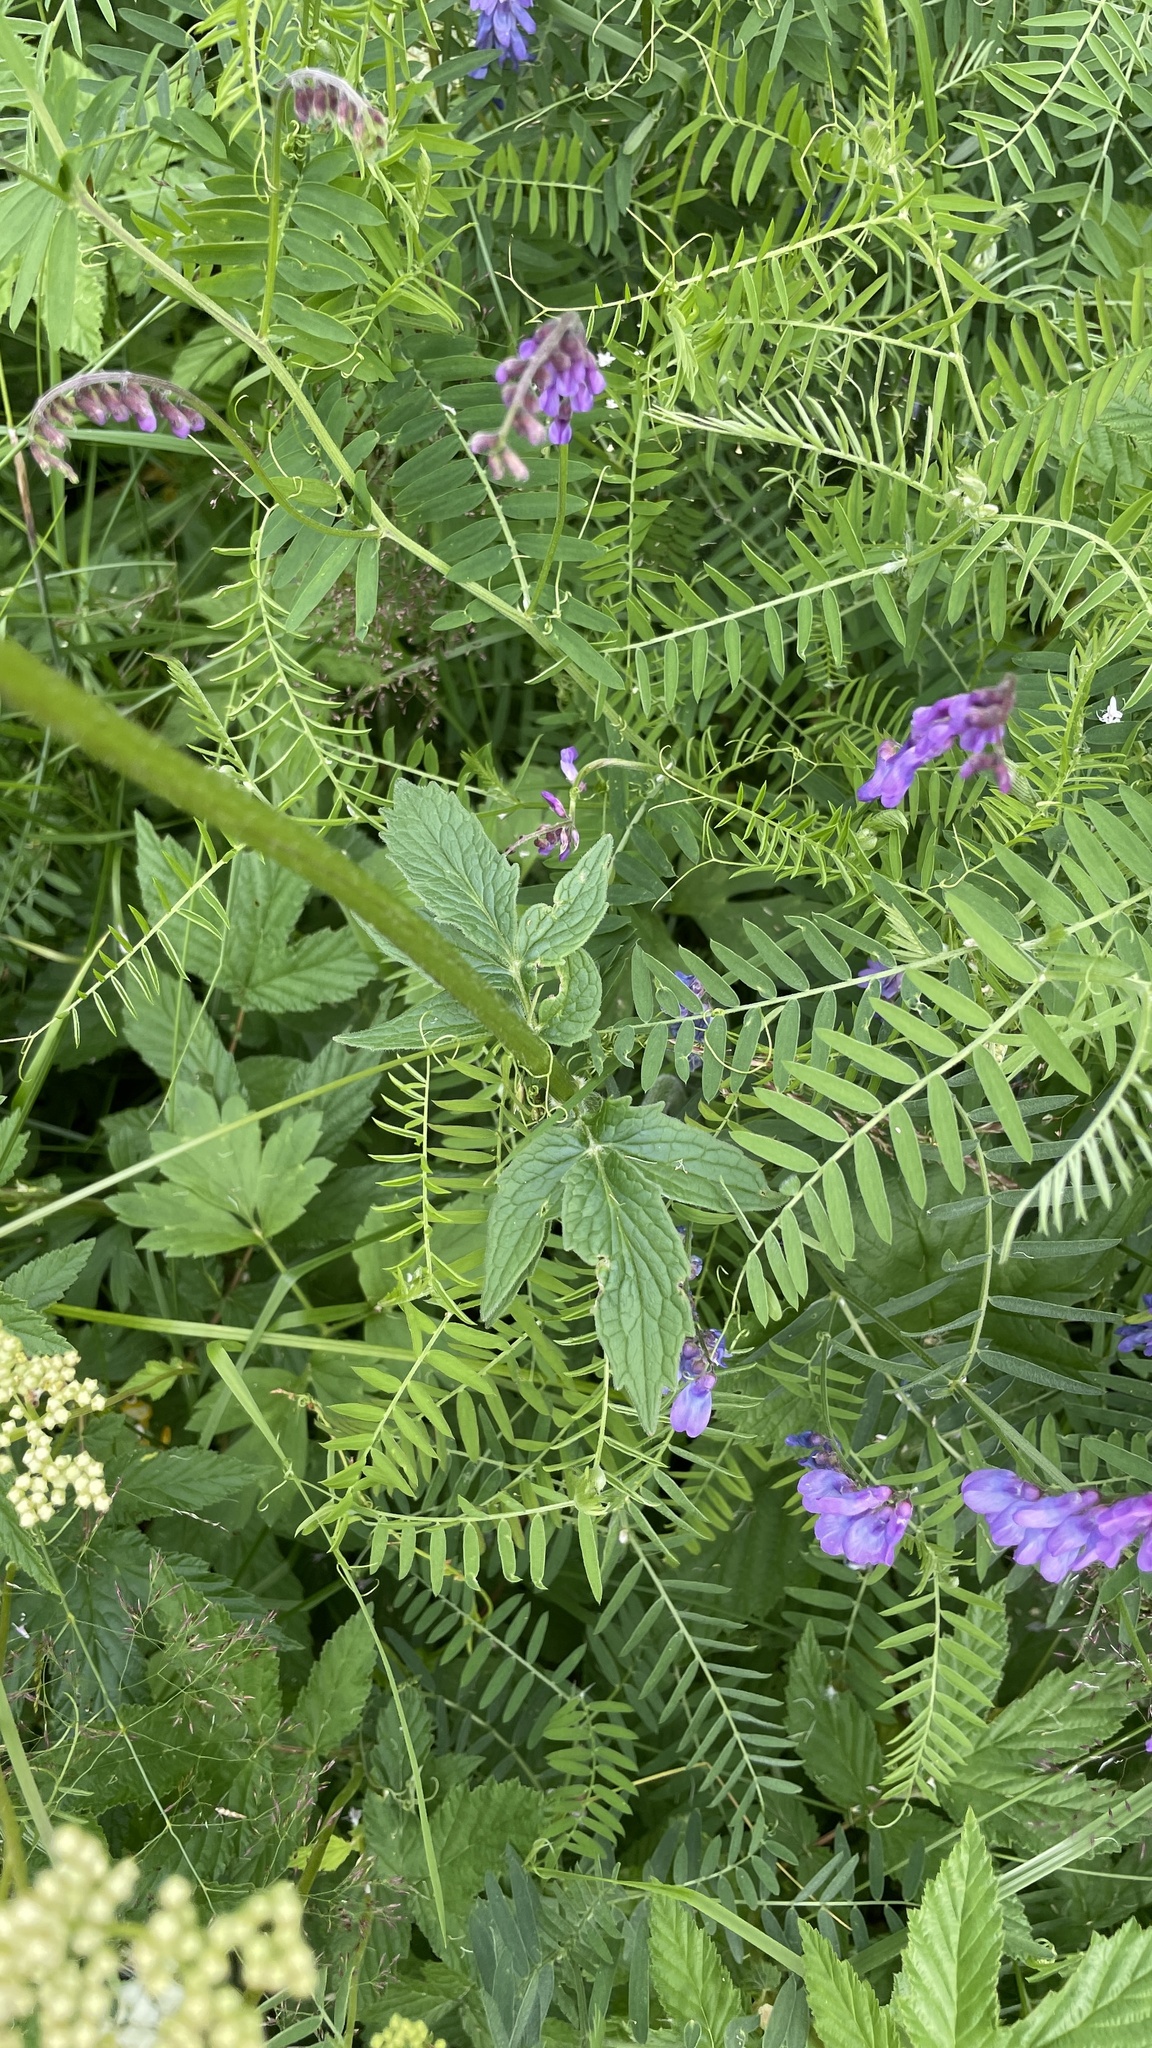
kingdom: Plantae
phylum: Tracheophyta
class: Magnoliopsida
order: Dipsacales
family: Caprifoliaceae
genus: Valeriana
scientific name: Valeriana sambucifolia
